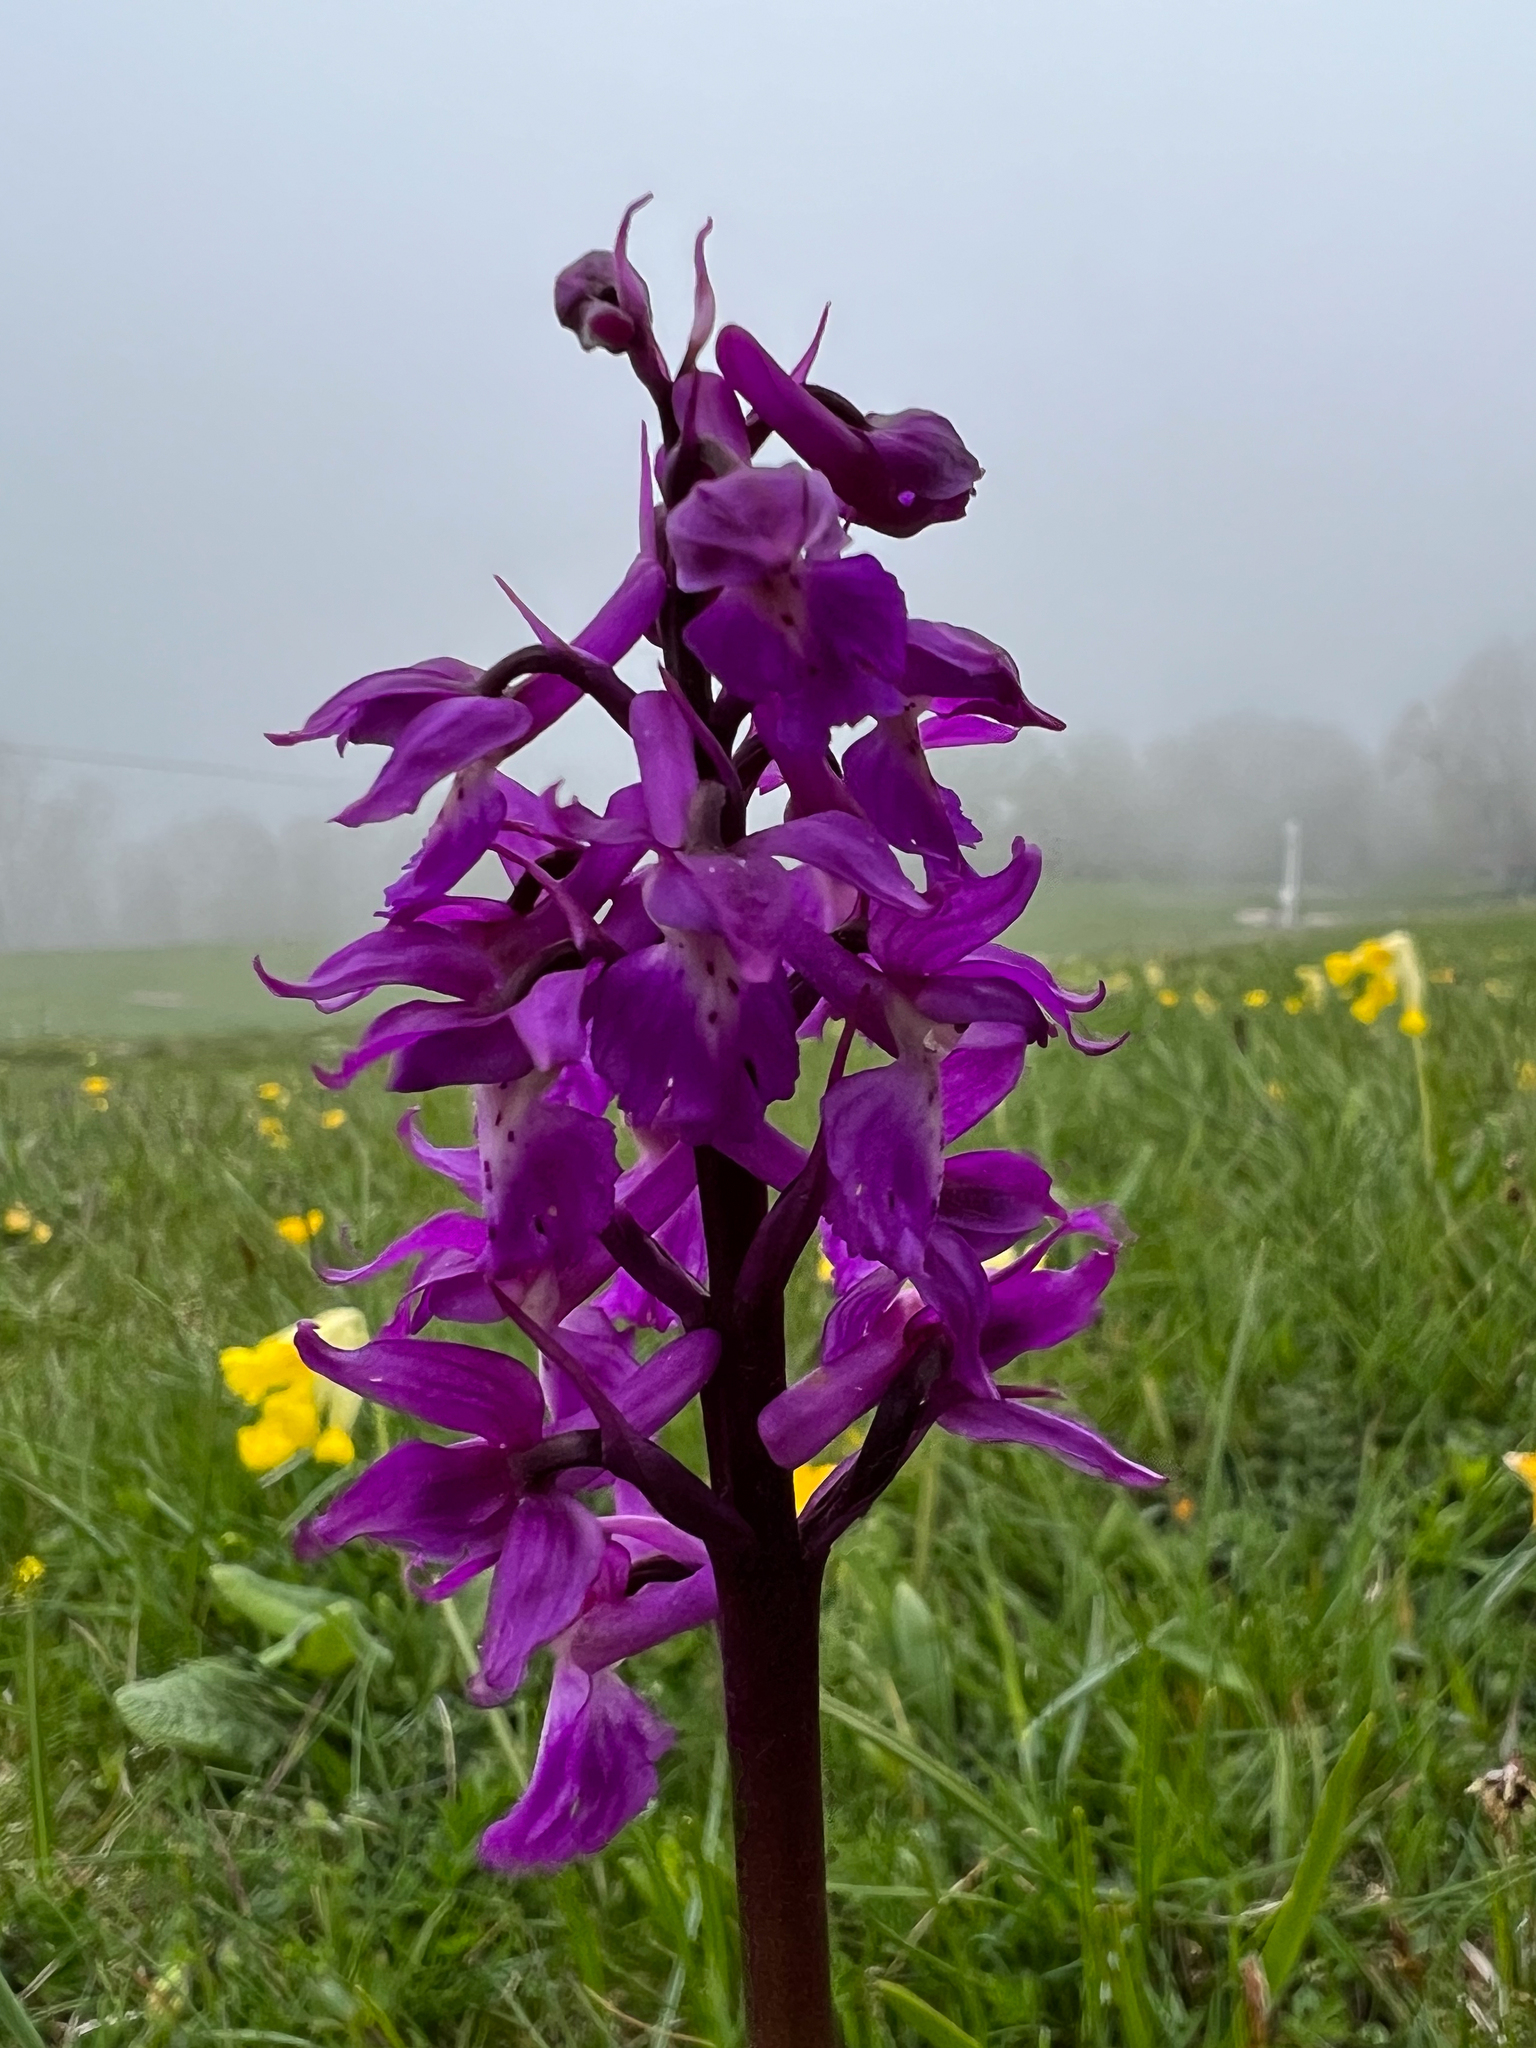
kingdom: Plantae
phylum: Tracheophyta
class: Liliopsida
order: Asparagales
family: Orchidaceae
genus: Orchis
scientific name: Orchis mascula
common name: Early-purple orchid
